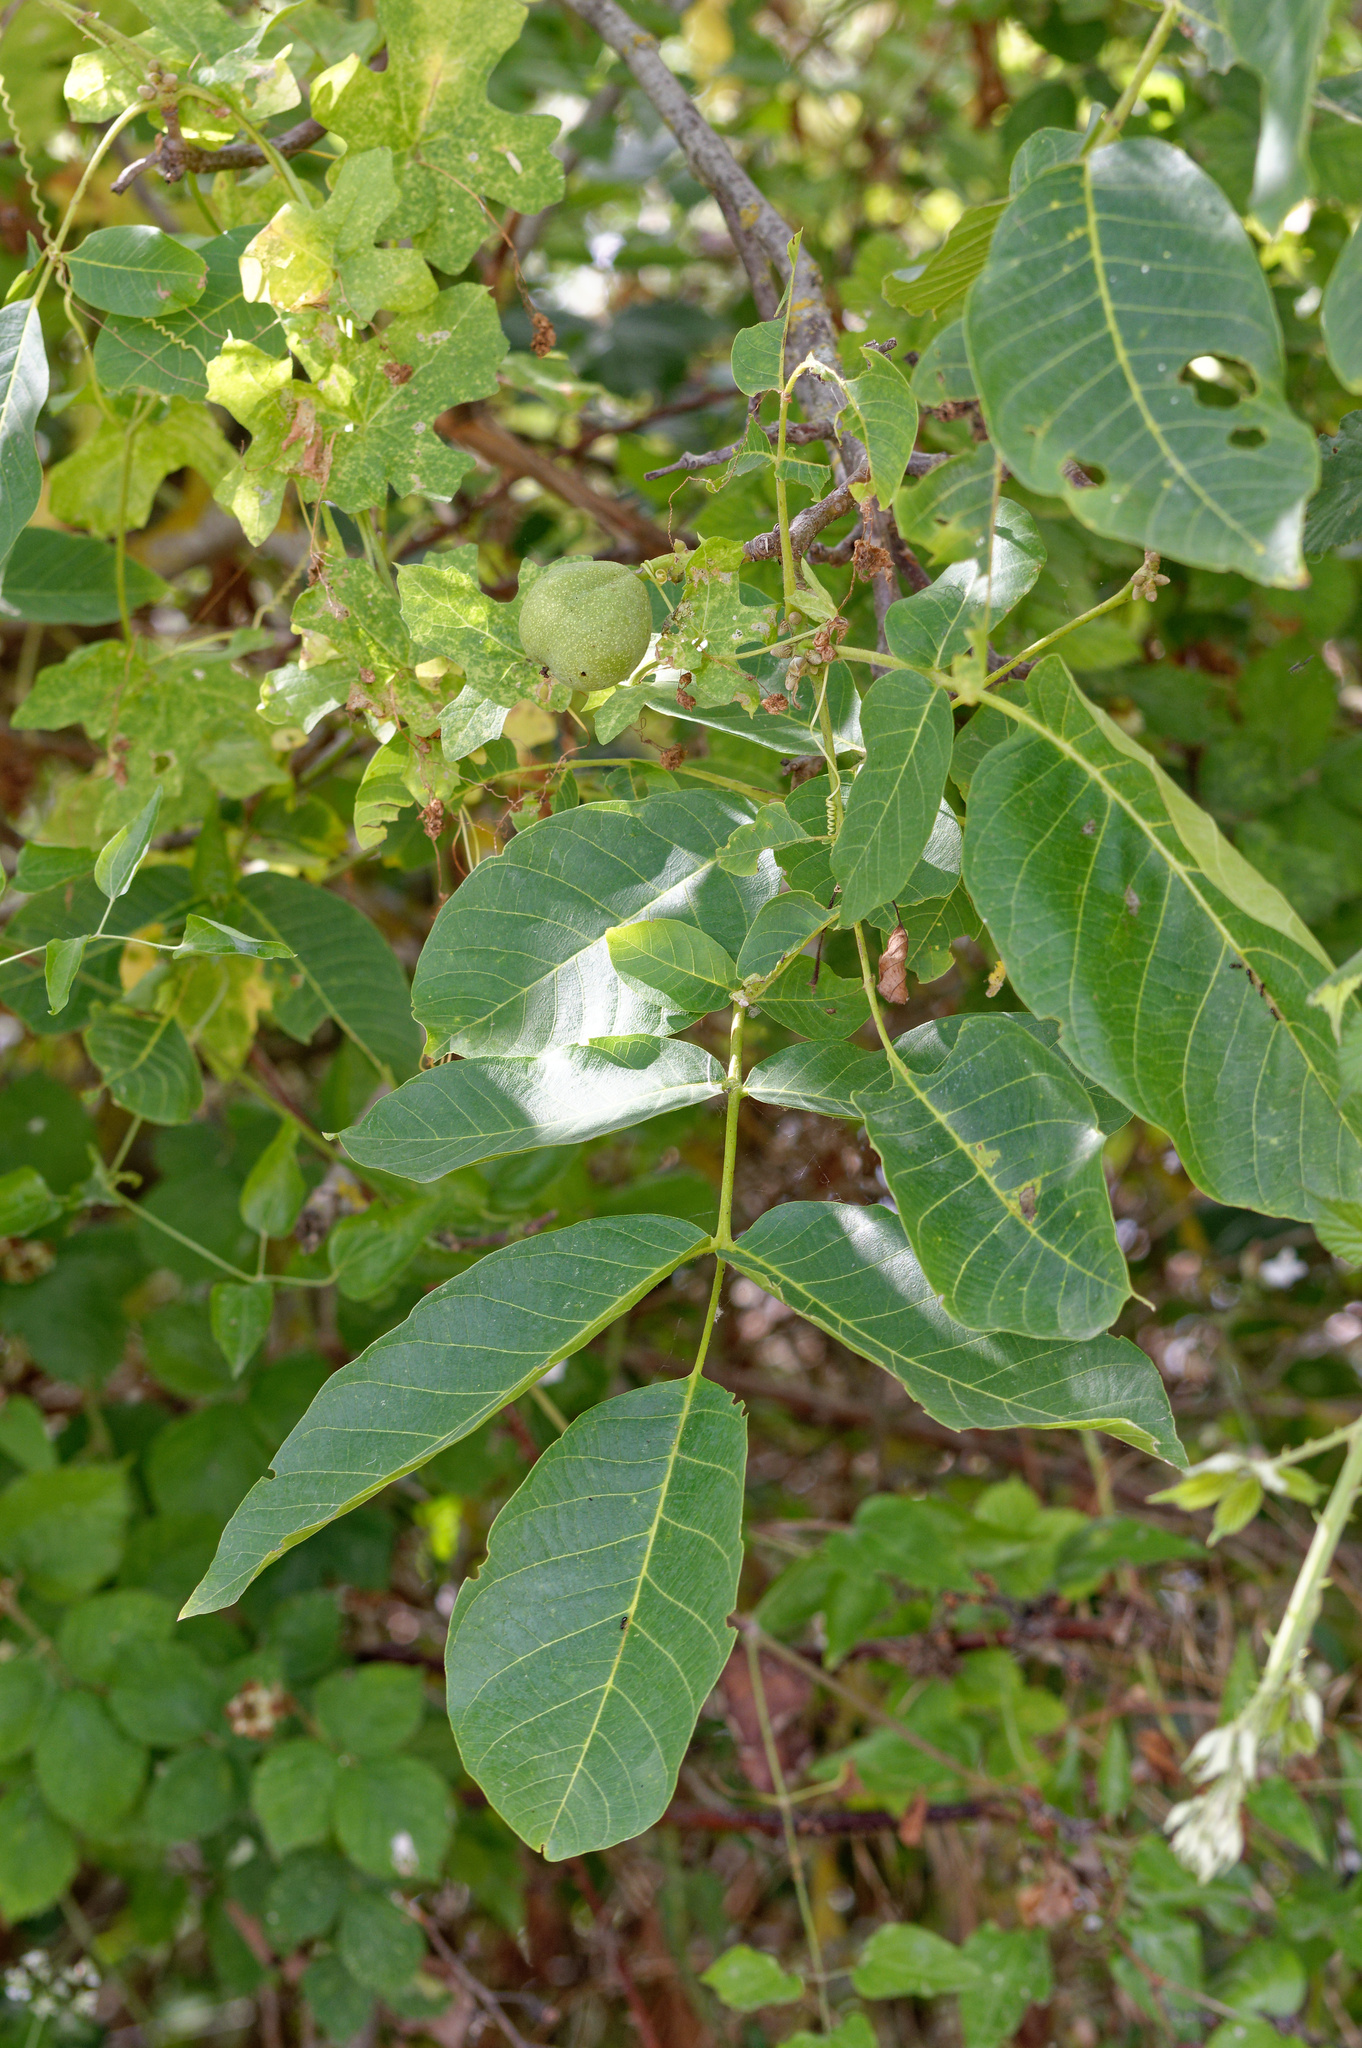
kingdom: Plantae
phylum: Tracheophyta
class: Magnoliopsida
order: Fagales
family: Juglandaceae
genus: Juglans
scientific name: Juglans regia
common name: Walnut
